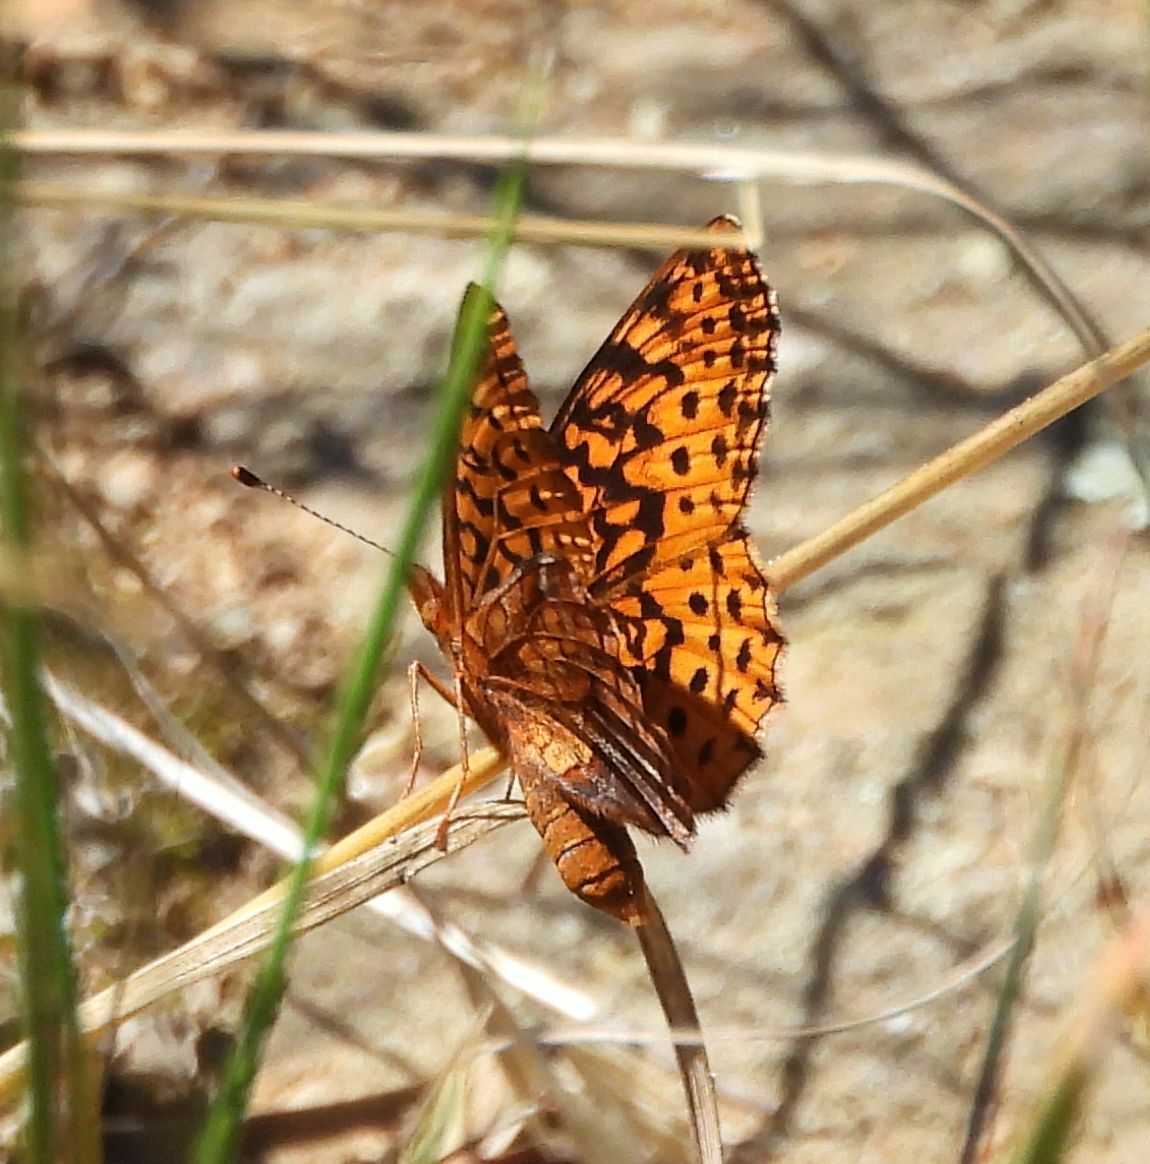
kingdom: Animalia
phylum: Arthropoda
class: Insecta
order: Lepidoptera
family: Nymphalidae
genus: Clossiana
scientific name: Clossiana toddi
